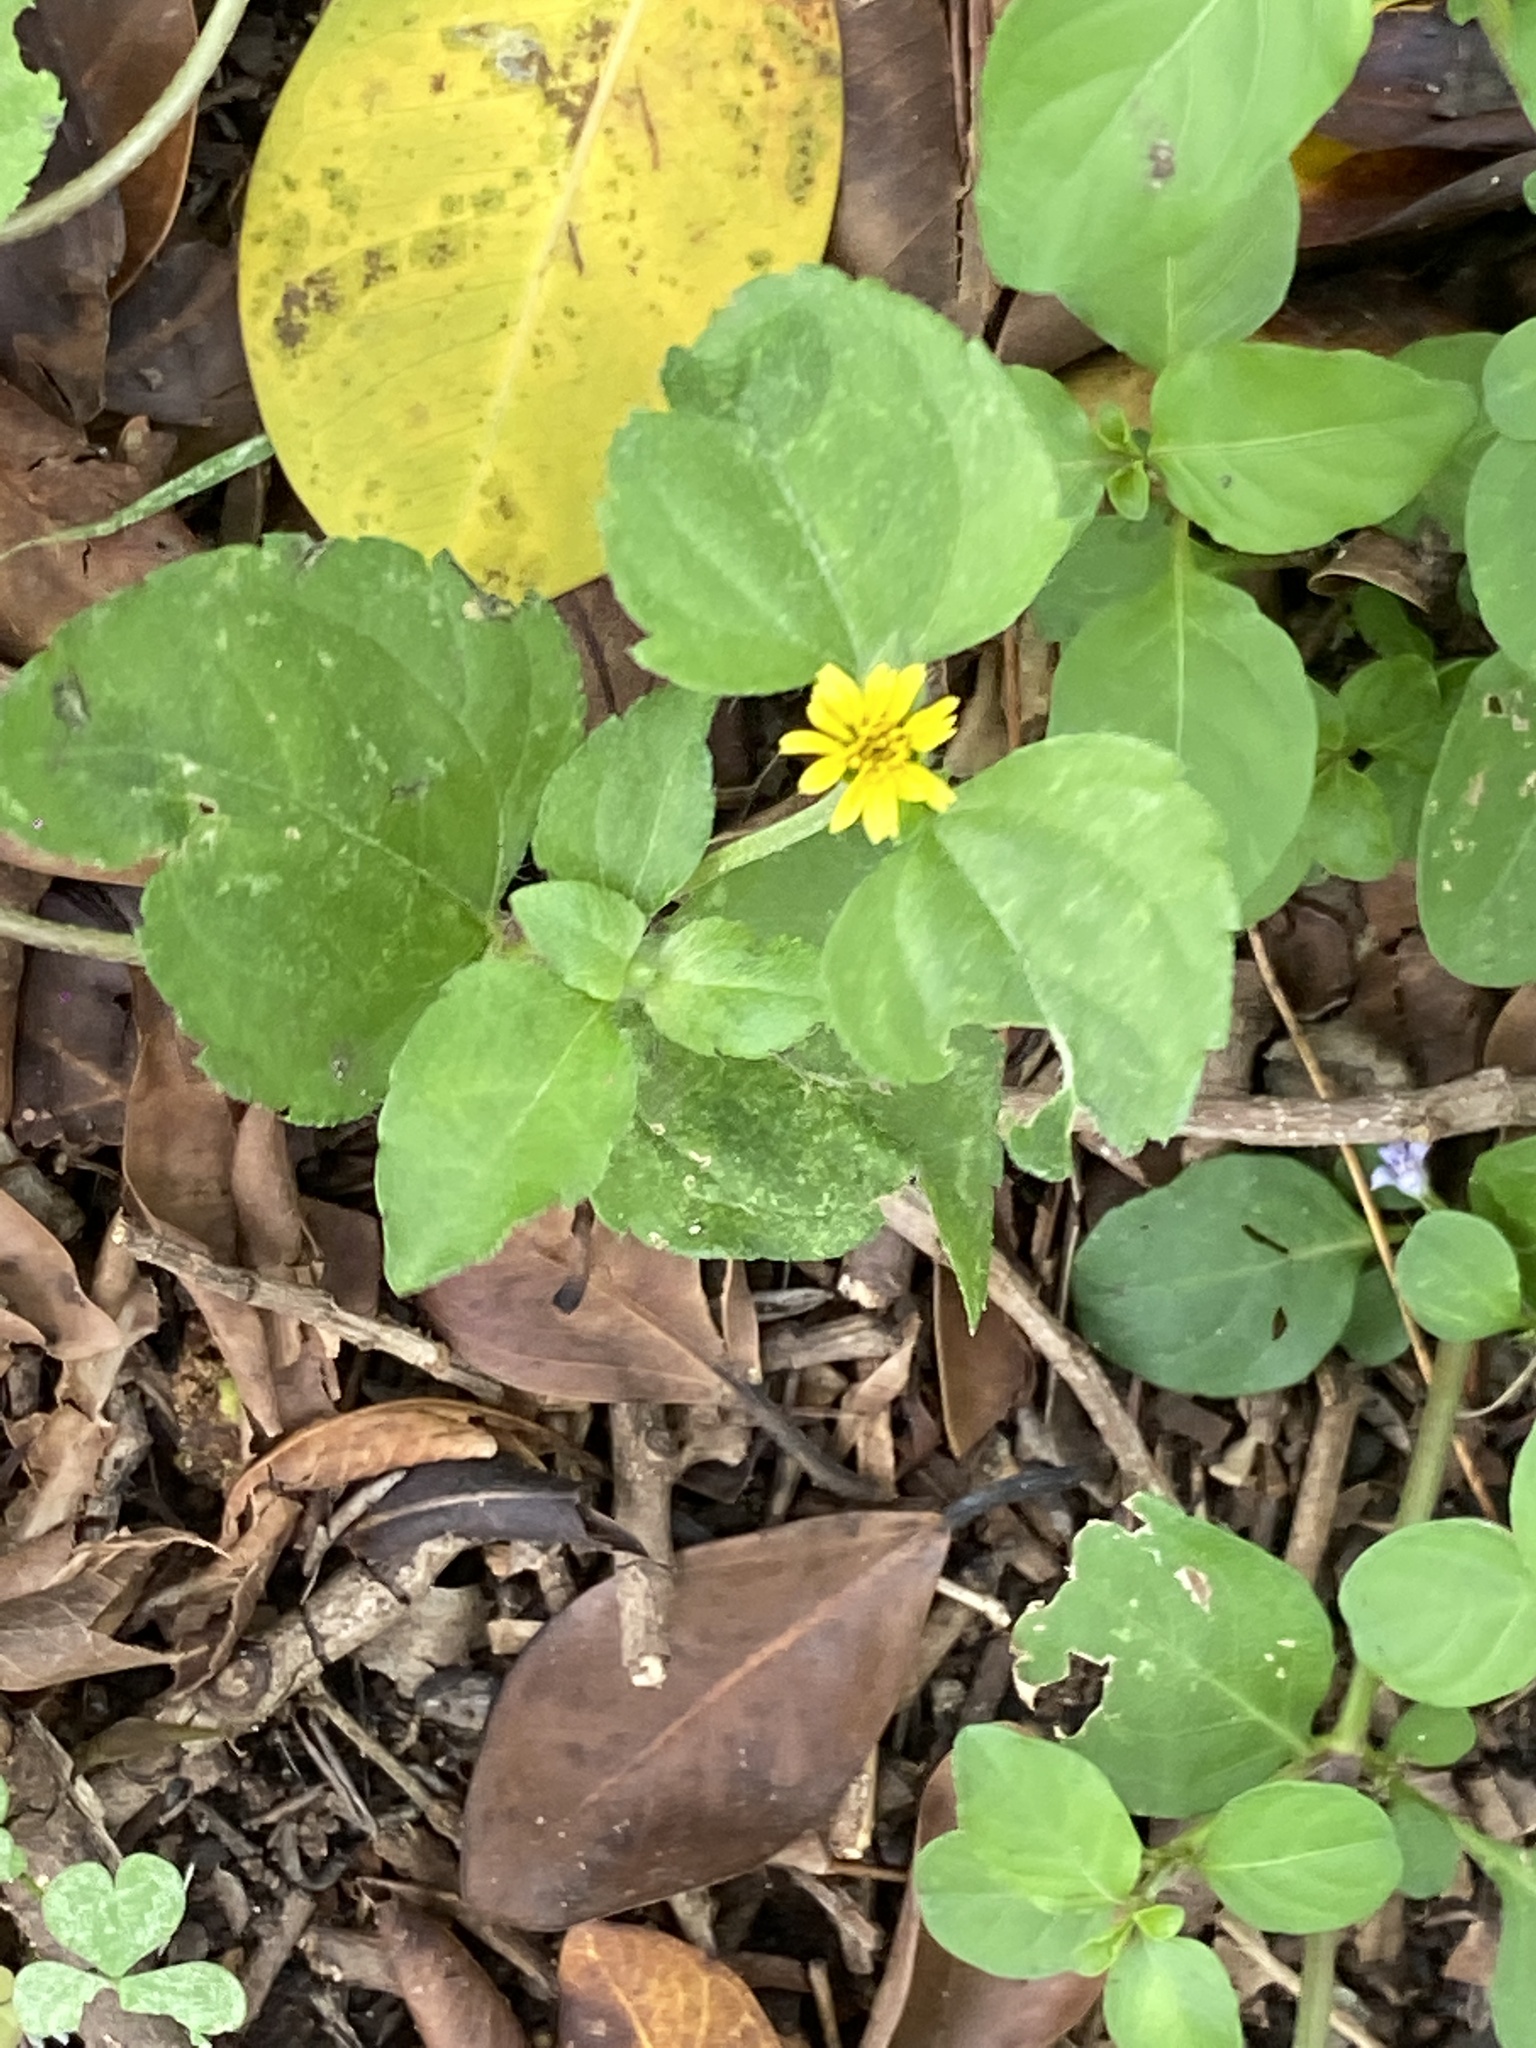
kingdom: Plantae
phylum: Tracheophyta
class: Magnoliopsida
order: Asterales
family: Asteraceae
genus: Calyptocarpus
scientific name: Calyptocarpus vialis
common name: Straggler daisy
